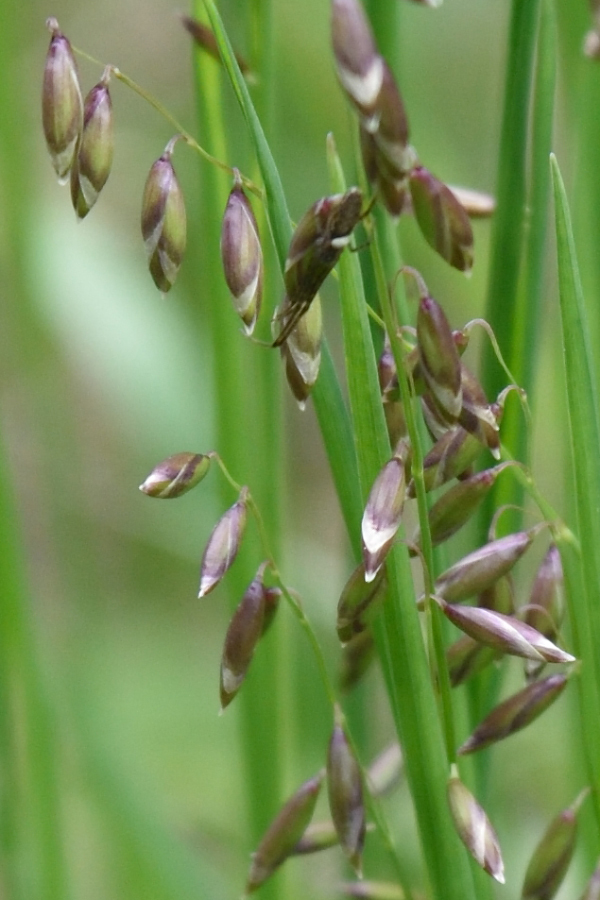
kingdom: Plantae
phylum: Tracheophyta
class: Liliopsida
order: Poales
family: Poaceae
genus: Melica
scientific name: Melica picta
